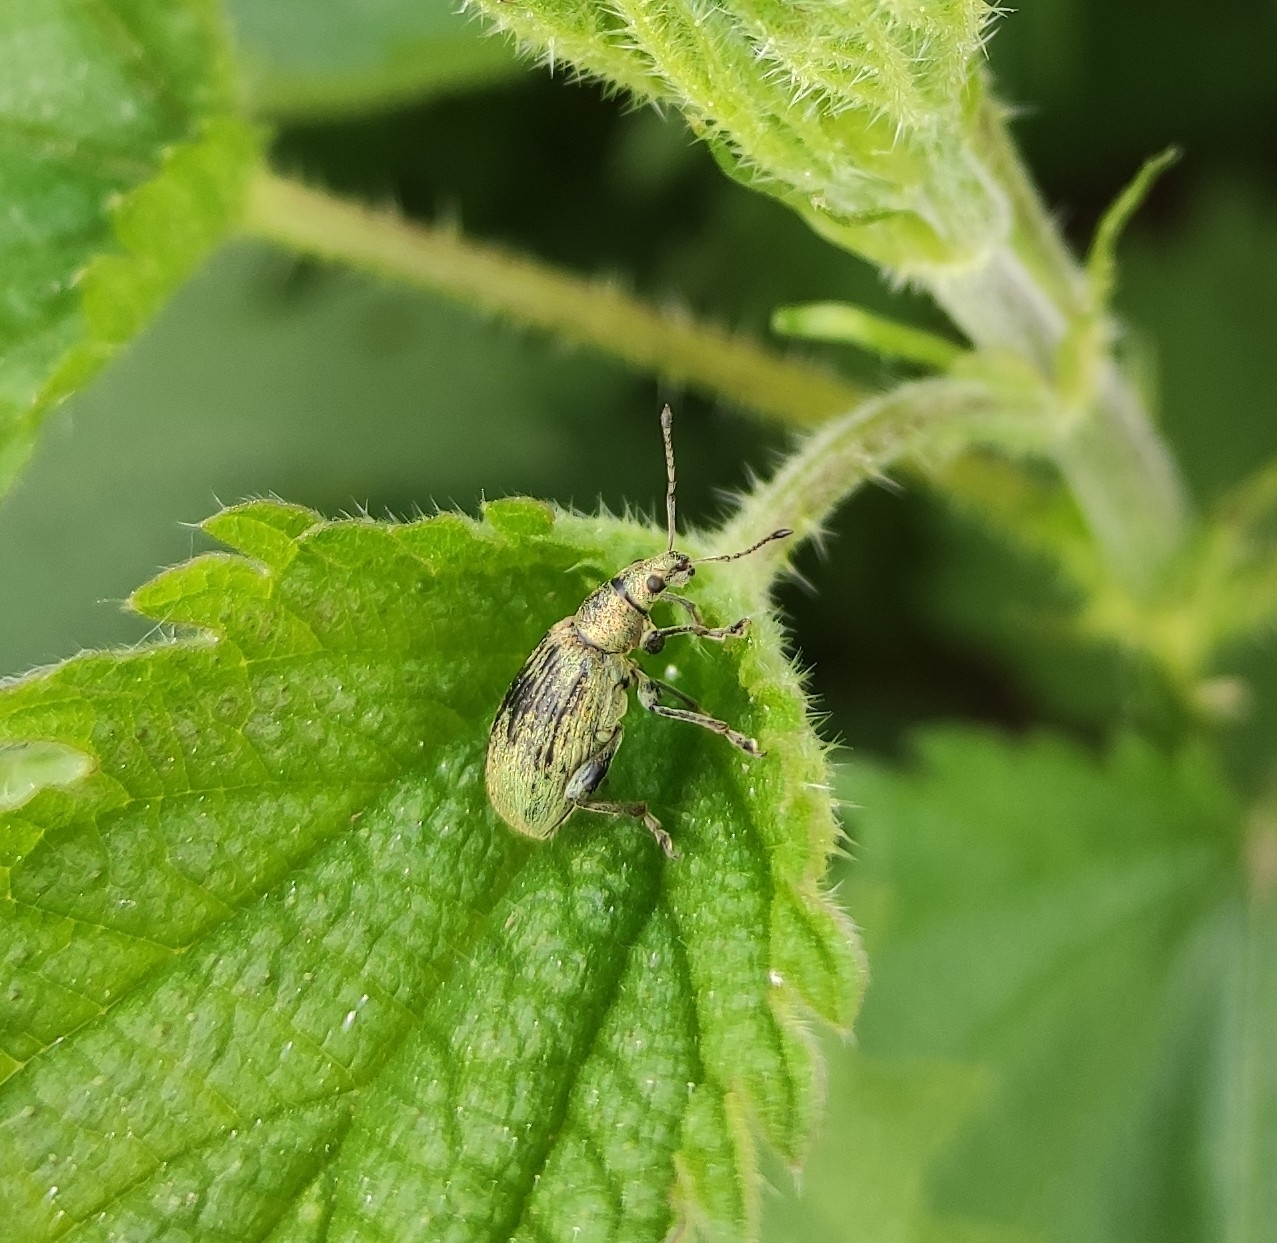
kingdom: Animalia
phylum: Arthropoda
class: Insecta
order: Coleoptera
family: Curculionidae
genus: Phyllobius
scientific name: Phyllobius pomaceus
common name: Green nettle weevil
